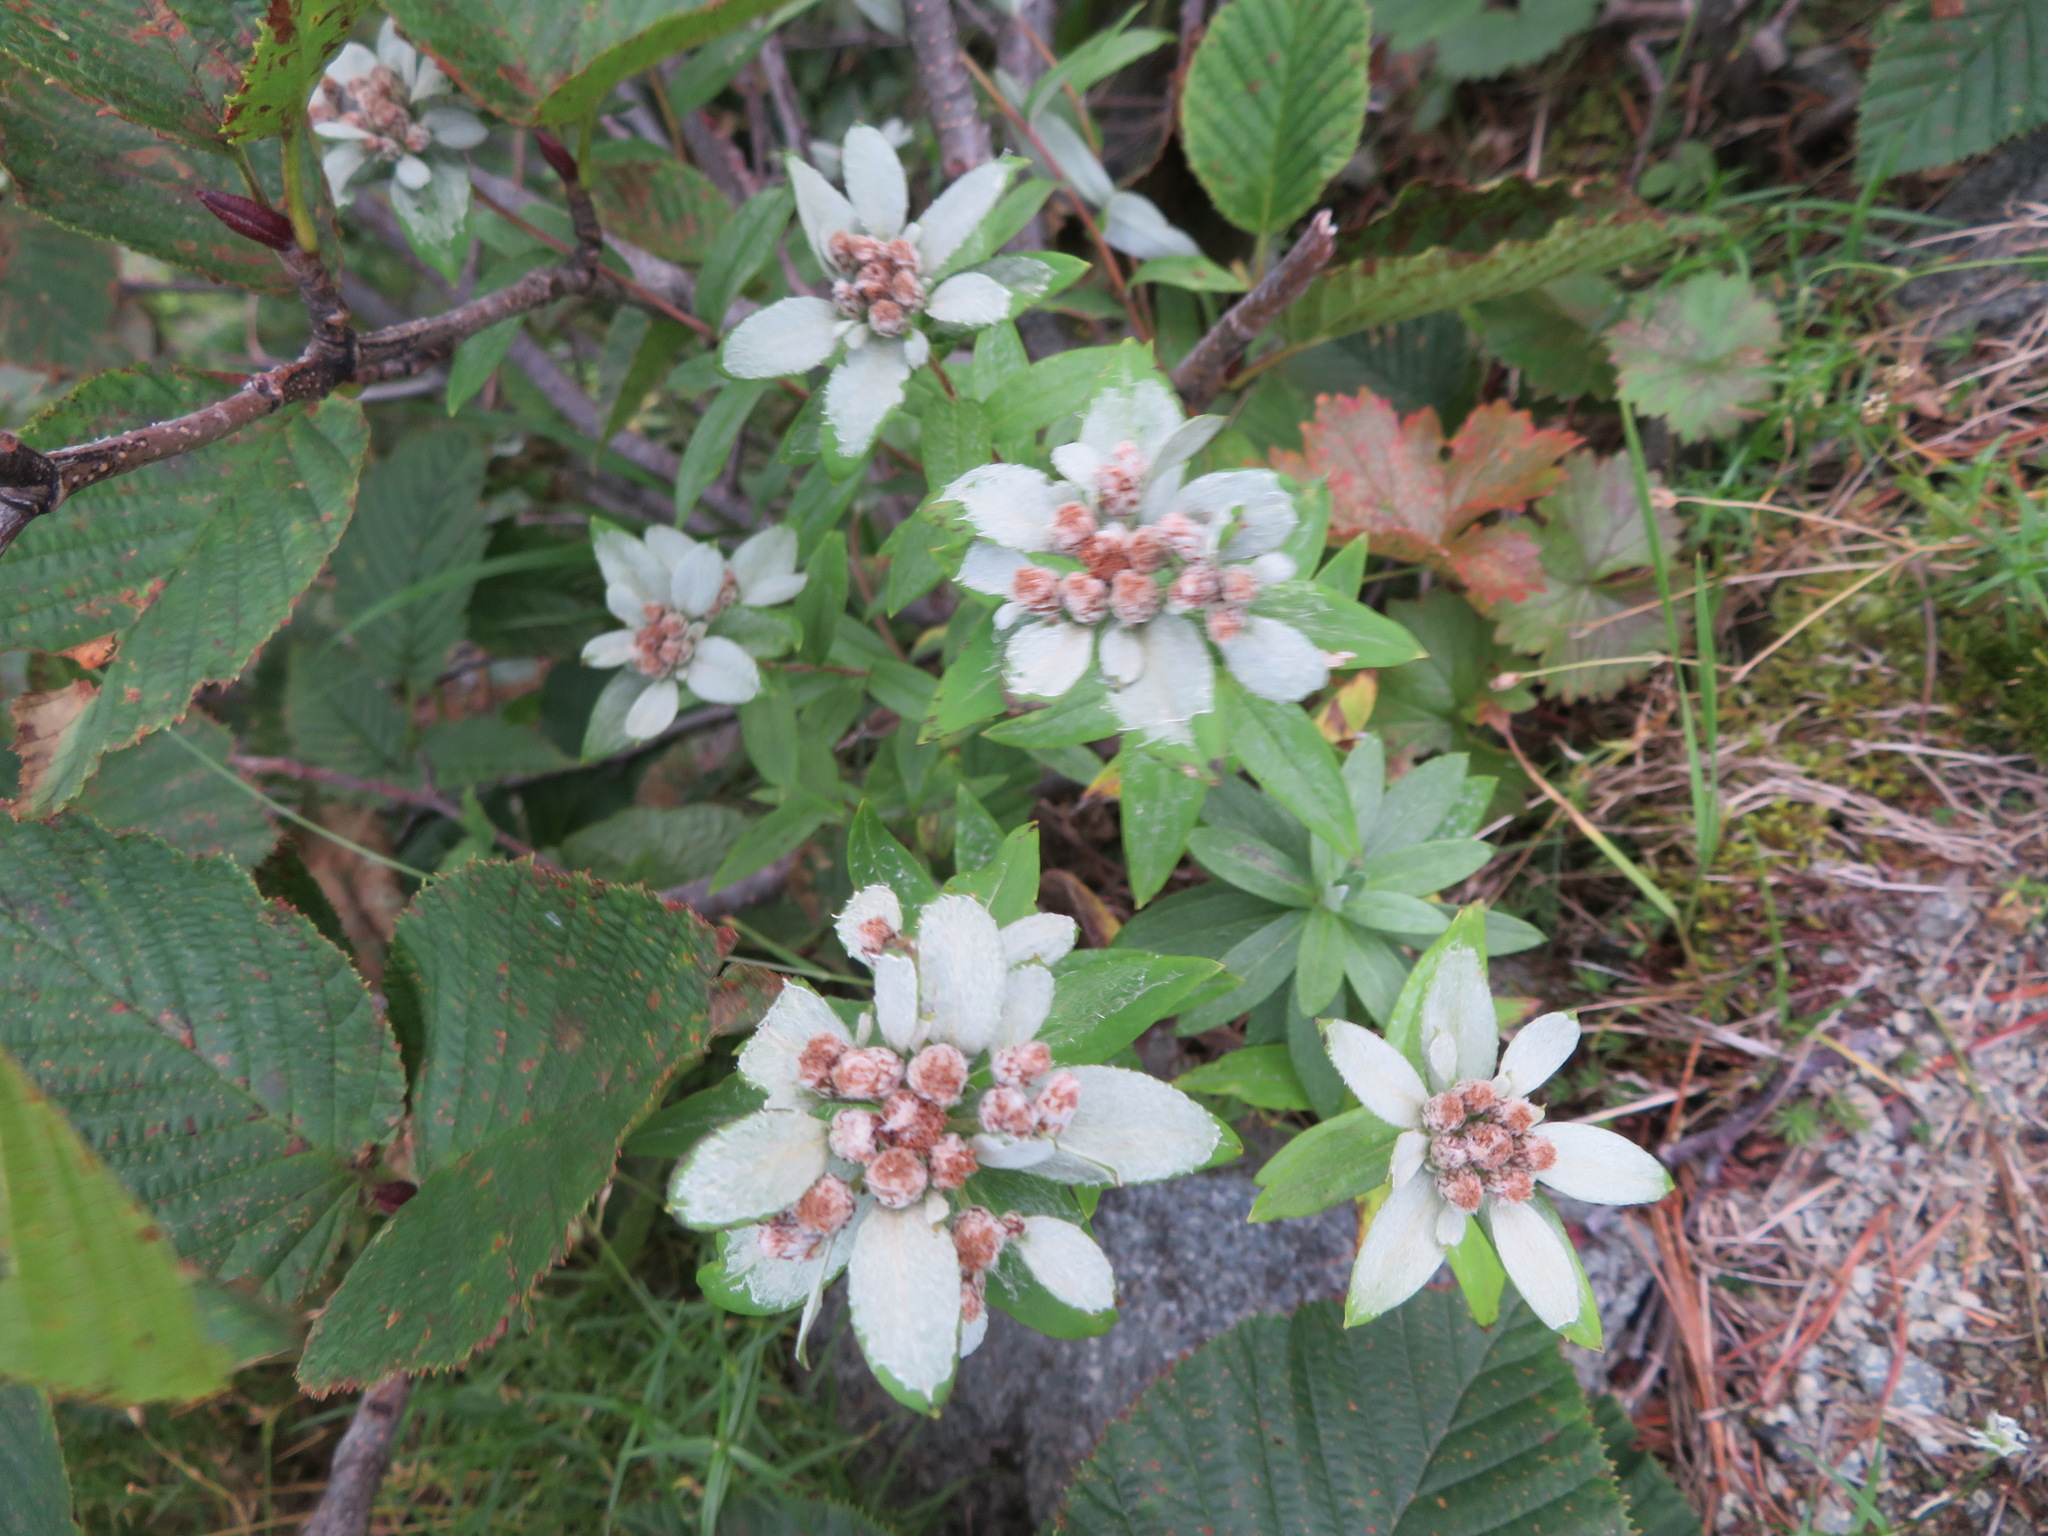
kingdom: Plantae
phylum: Tracheophyta
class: Magnoliopsida
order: Asterales
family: Asteraceae
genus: Leontopodium
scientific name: Leontopodium japonicum
